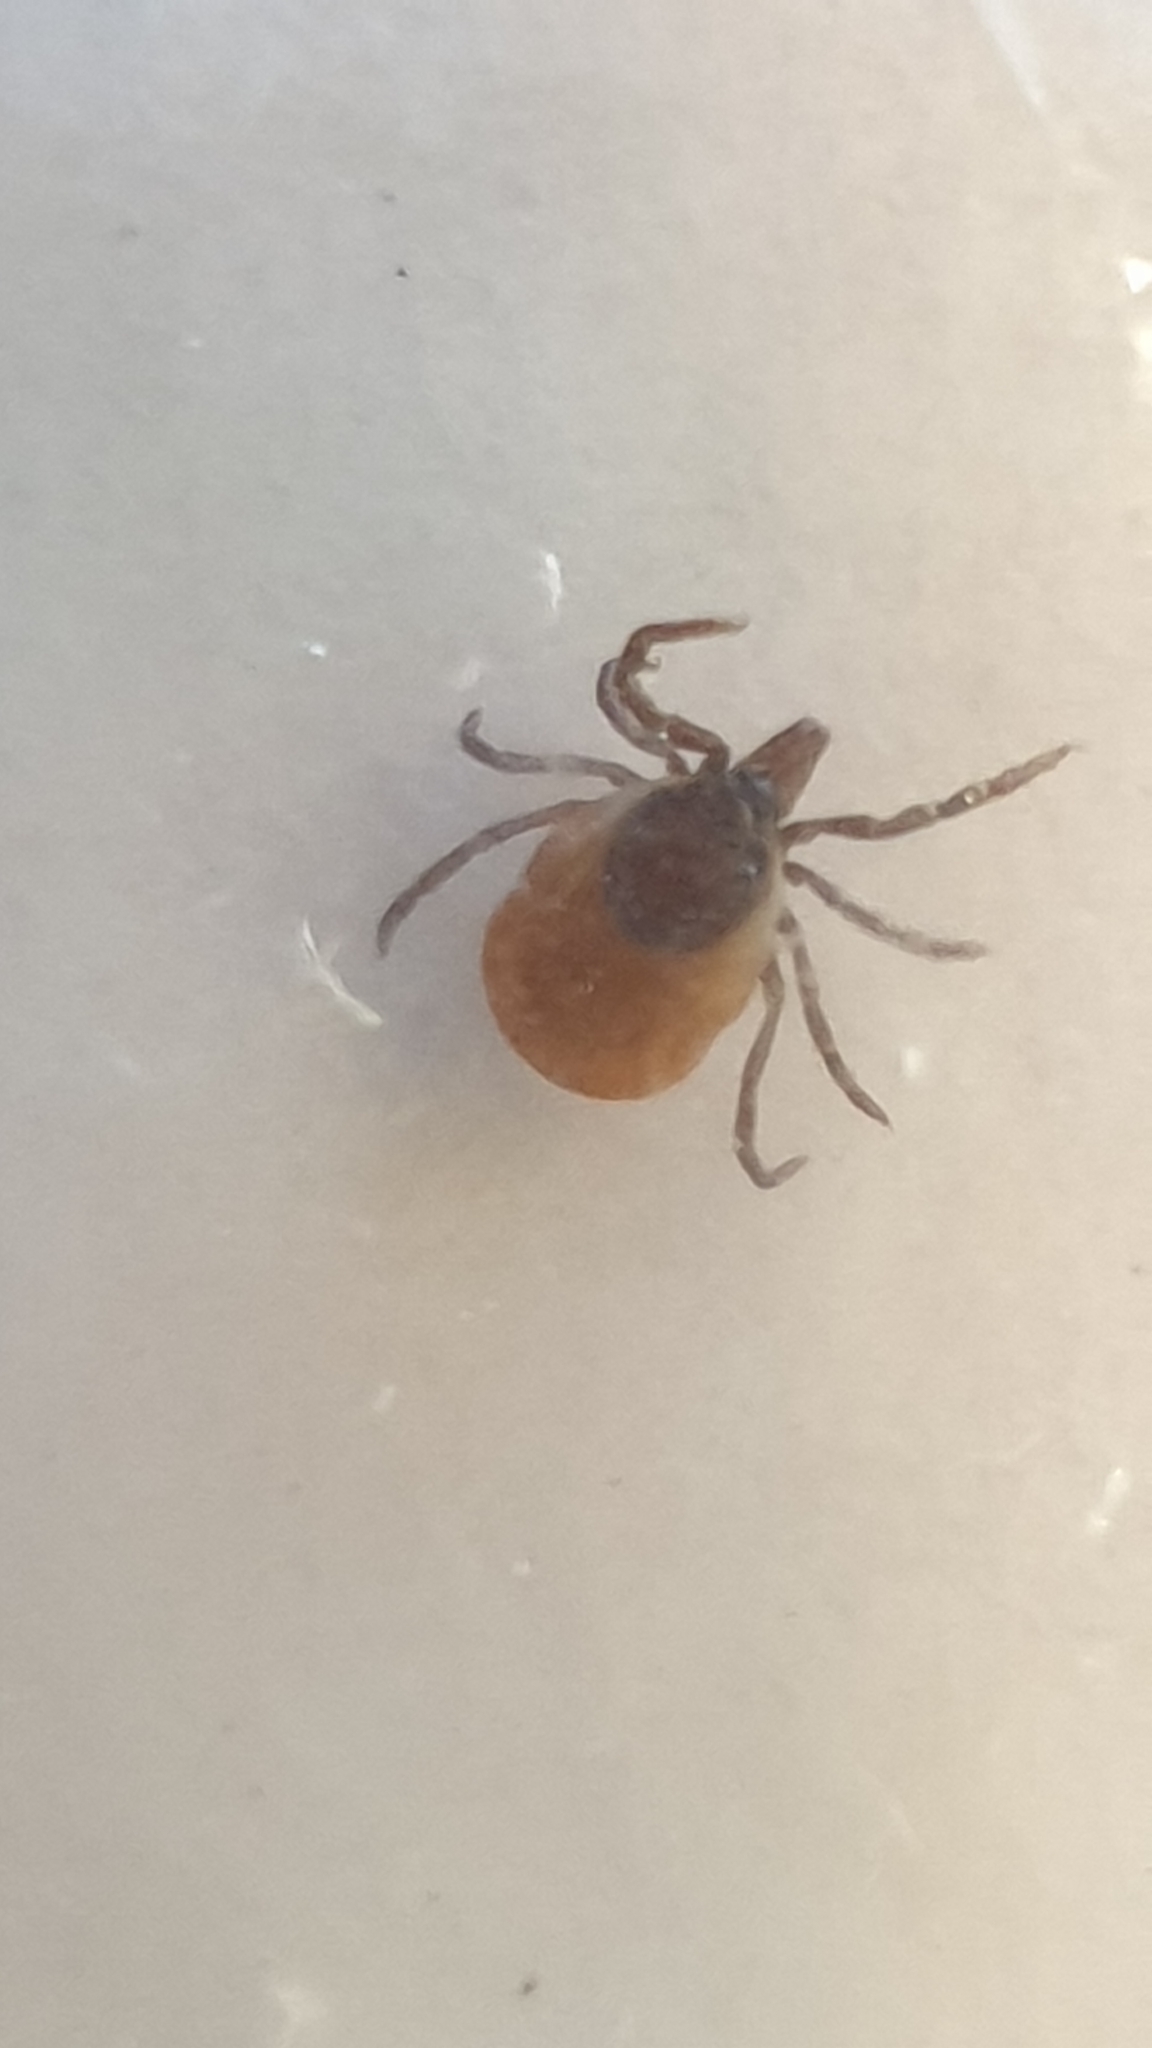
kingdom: Animalia
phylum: Arthropoda
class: Arachnida
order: Ixodida
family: Ixodidae
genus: Ixodes
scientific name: Ixodes ricinus
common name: Castor bean tick
